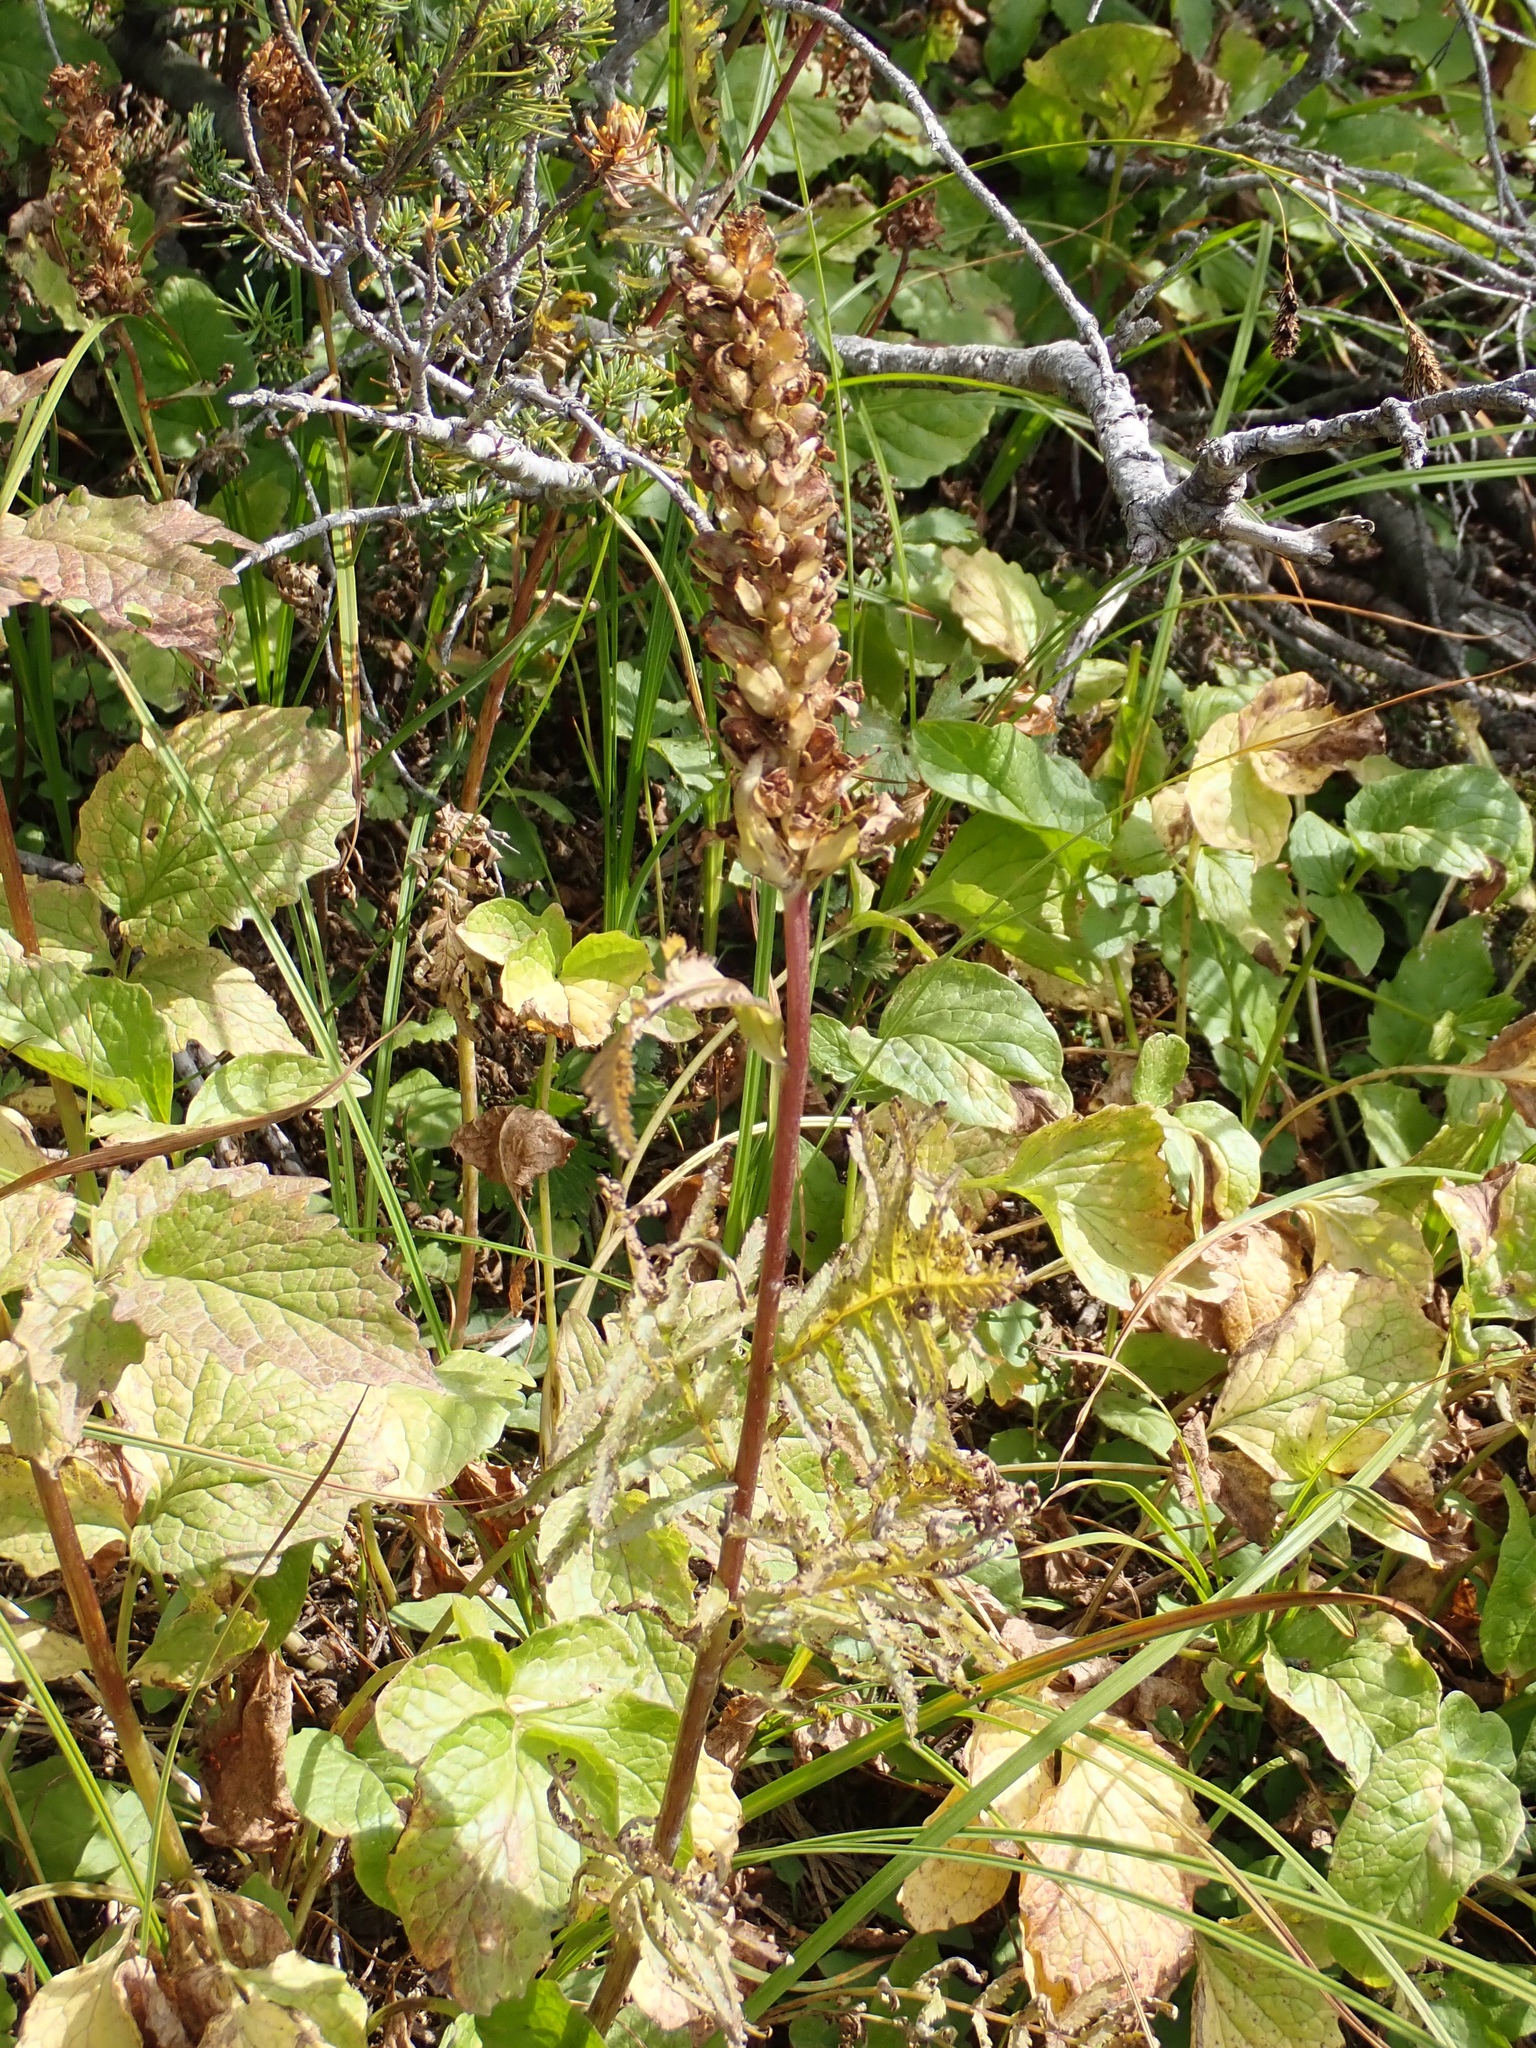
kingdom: Plantae
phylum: Tracheophyta
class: Magnoliopsida
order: Lamiales
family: Orobanchaceae
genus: Pedicularis
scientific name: Pedicularis bracteosa
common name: Bracted lousewort
